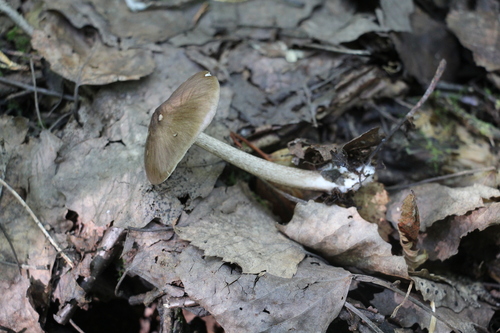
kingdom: Fungi
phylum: Basidiomycota
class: Agaricomycetes
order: Agaricales
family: Pluteaceae
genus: Pluteus
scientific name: Pluteus
